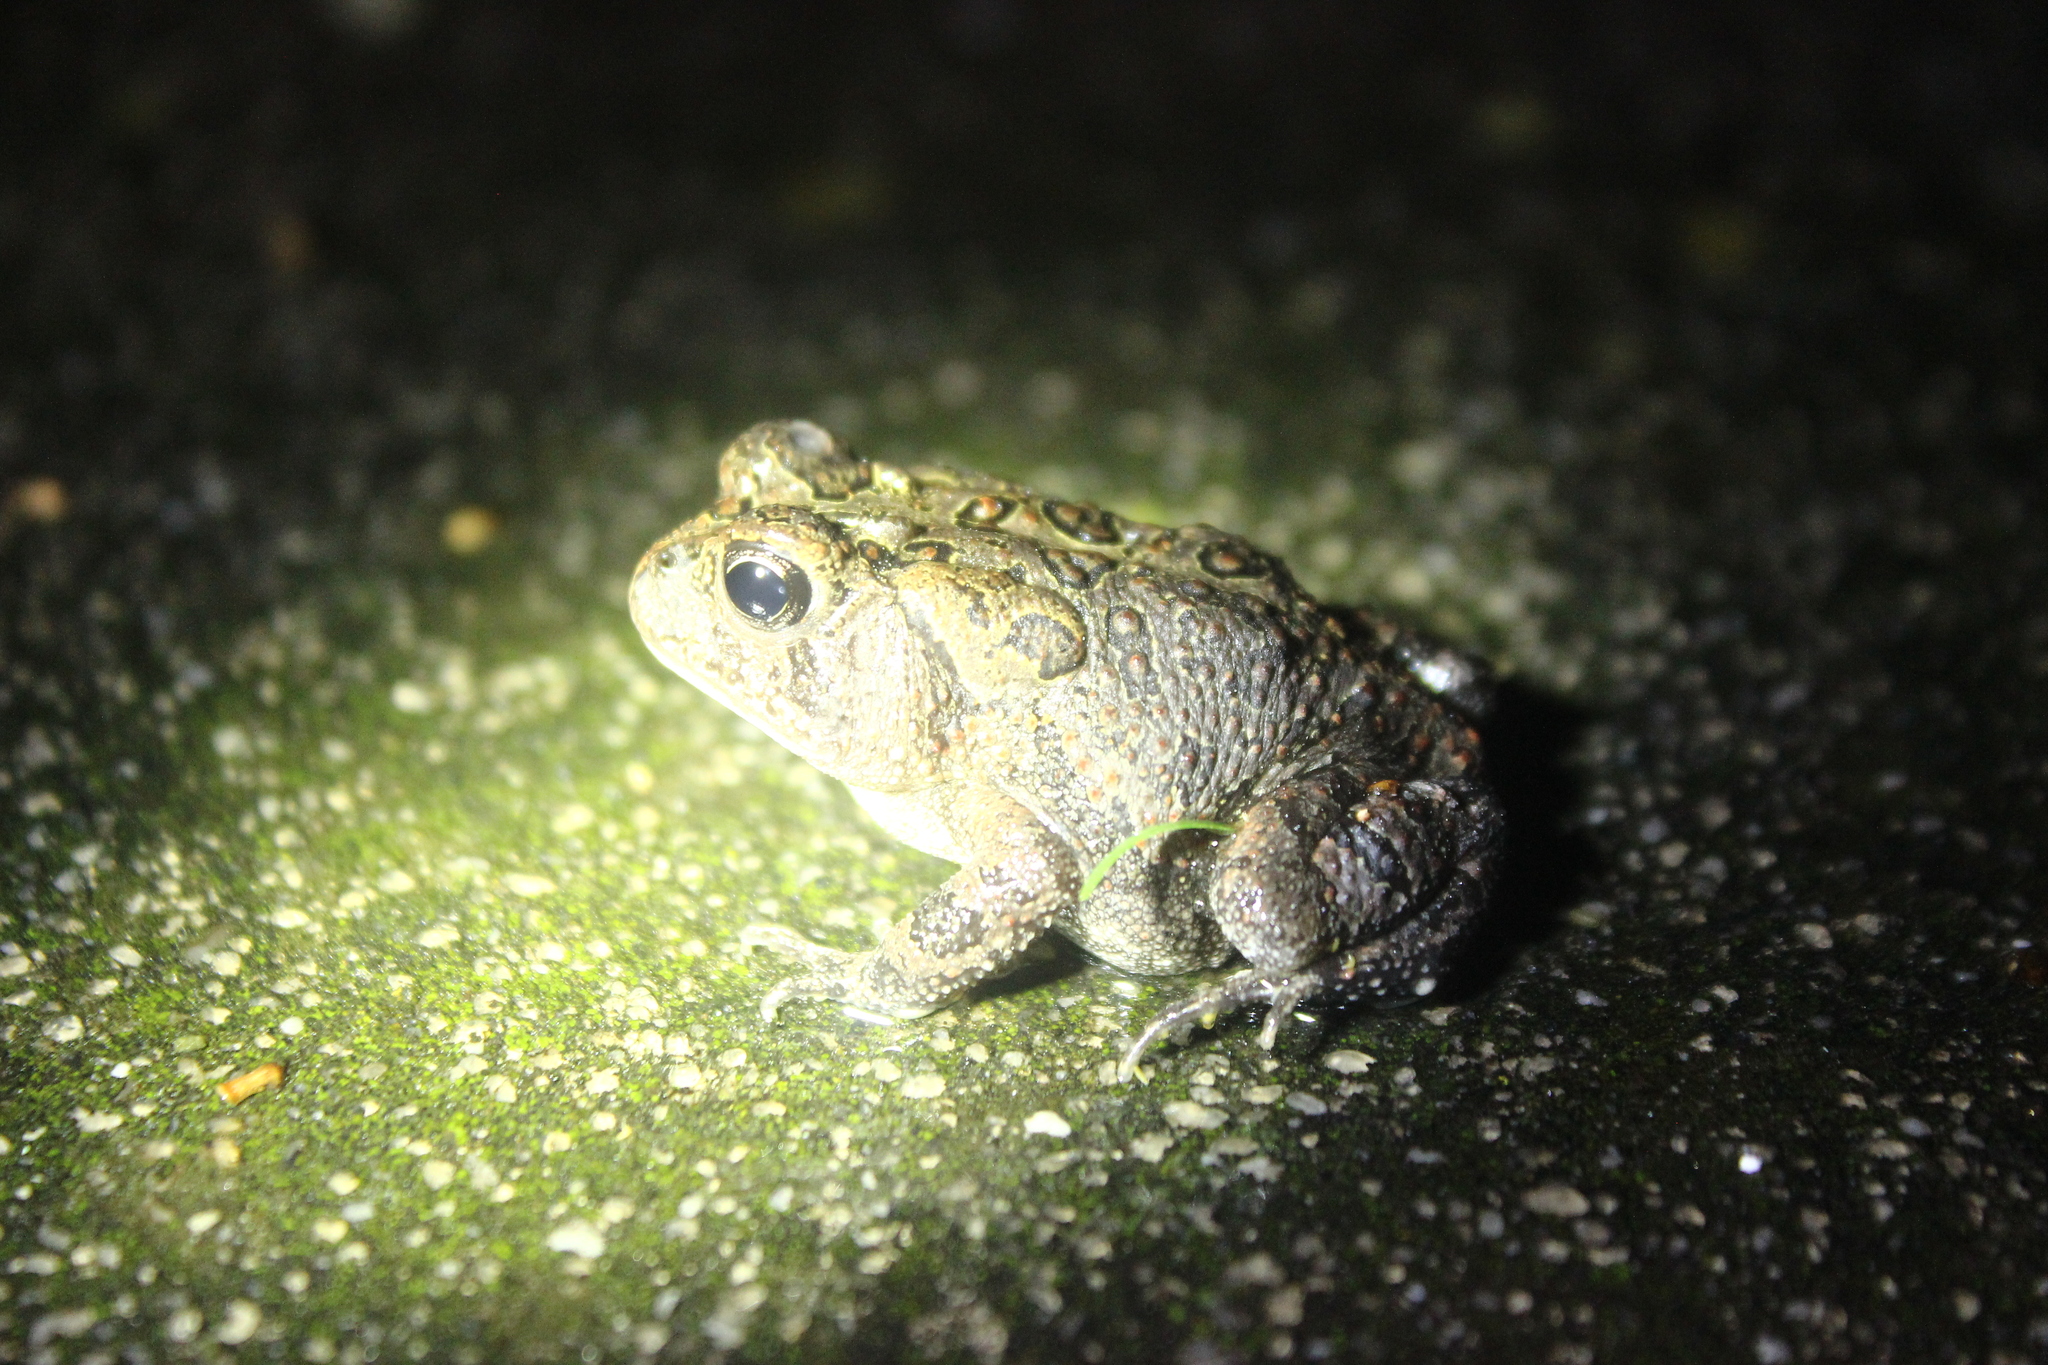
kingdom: Animalia
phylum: Chordata
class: Amphibia
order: Anura
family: Bufonidae
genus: Anaxyrus
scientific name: Anaxyrus terrestris
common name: Southern toad
